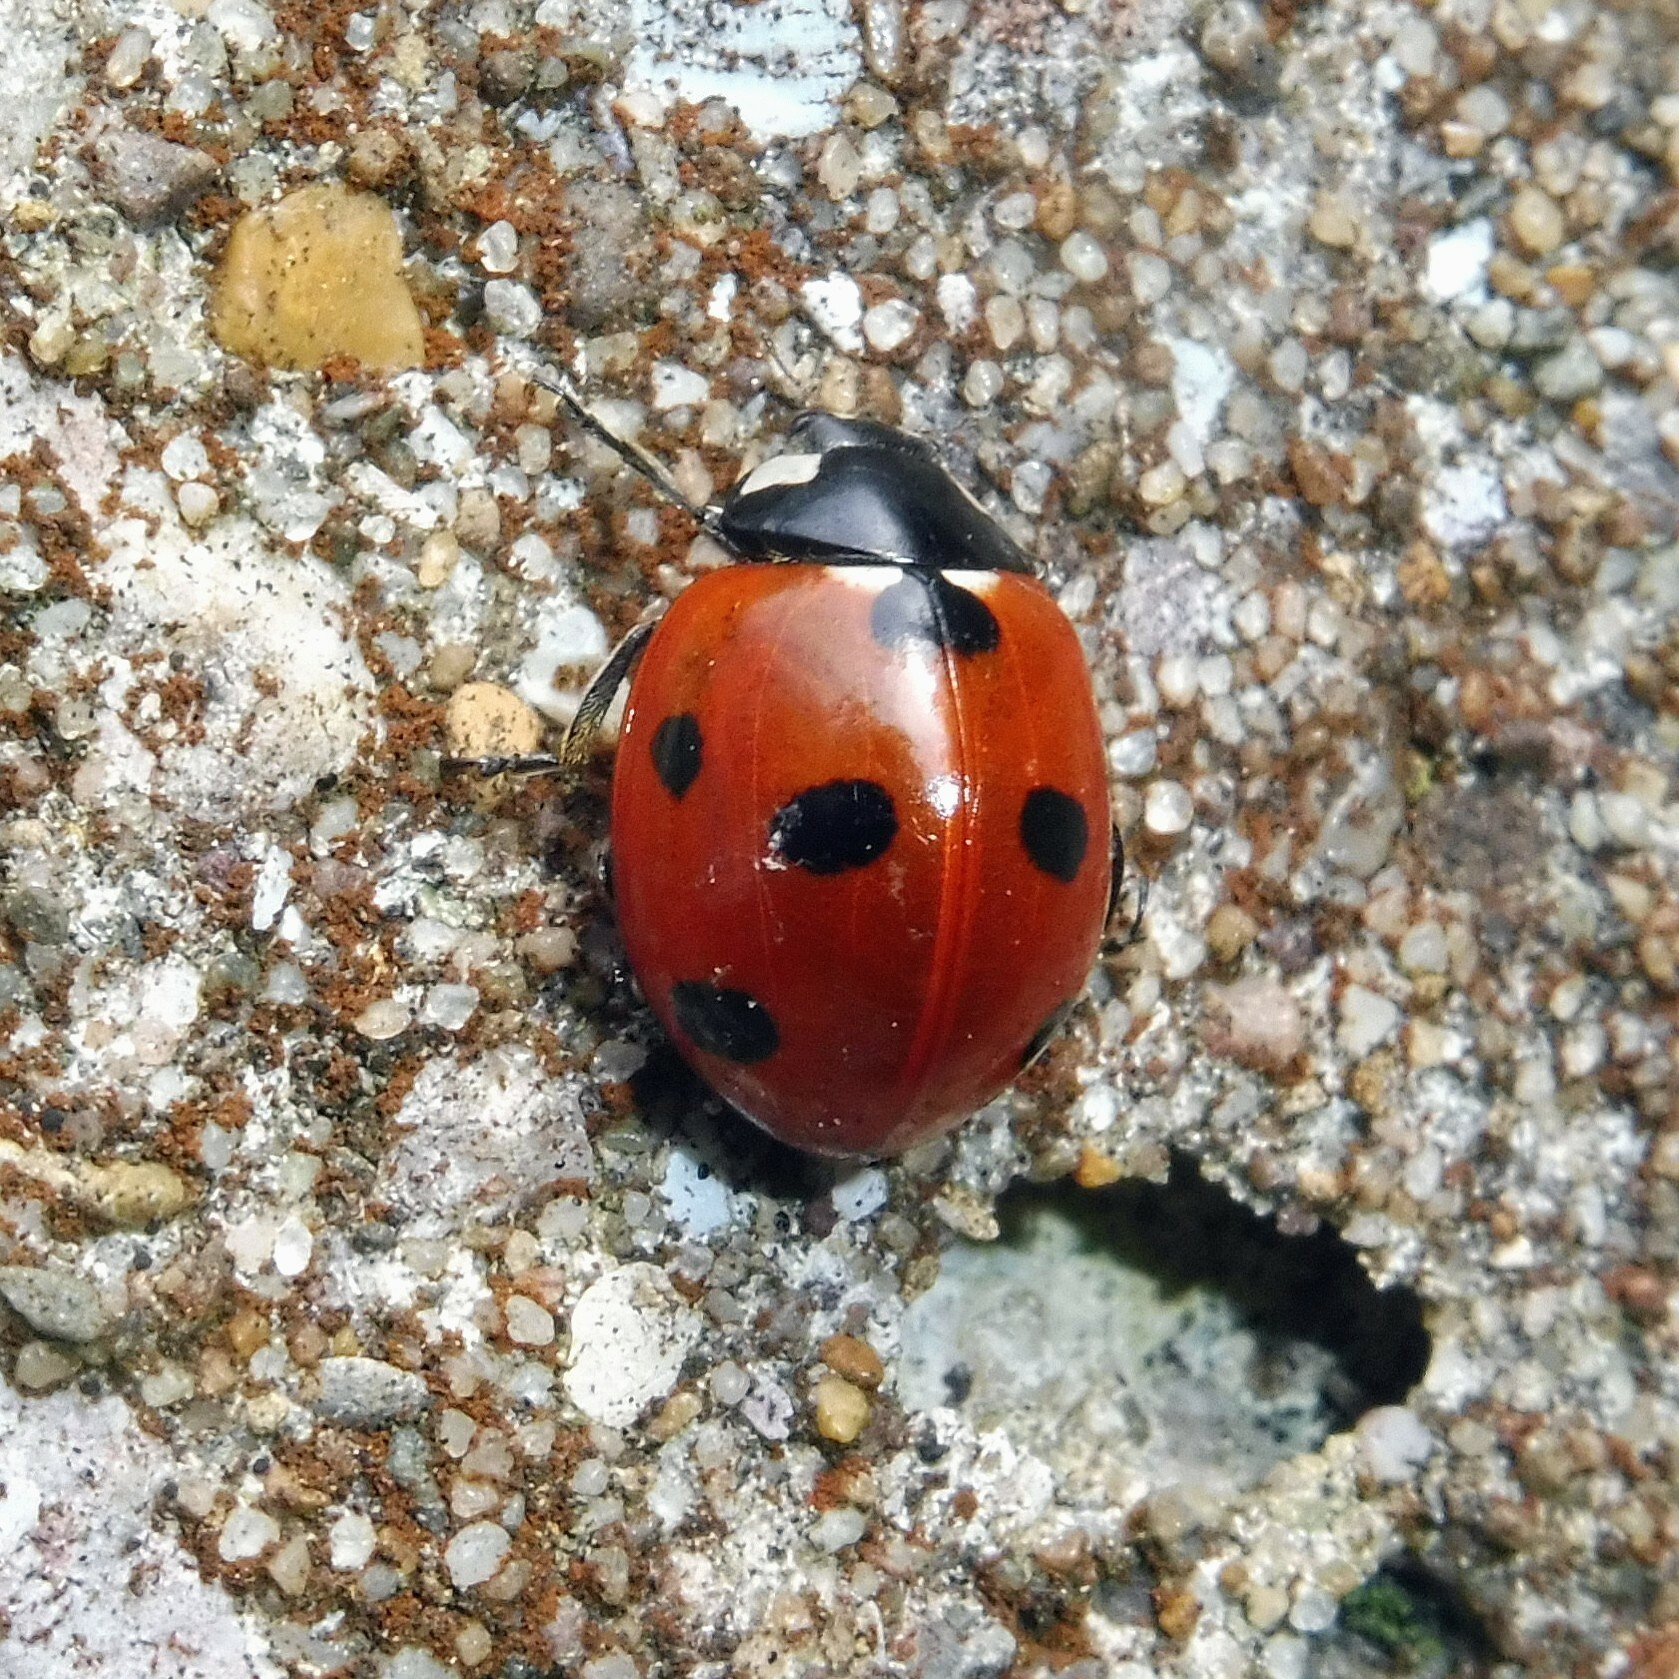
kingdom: Animalia
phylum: Arthropoda
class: Insecta
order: Coleoptera
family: Coccinellidae
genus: Coccinella
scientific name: Coccinella septempunctata
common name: Sevenspotted lady beetle
